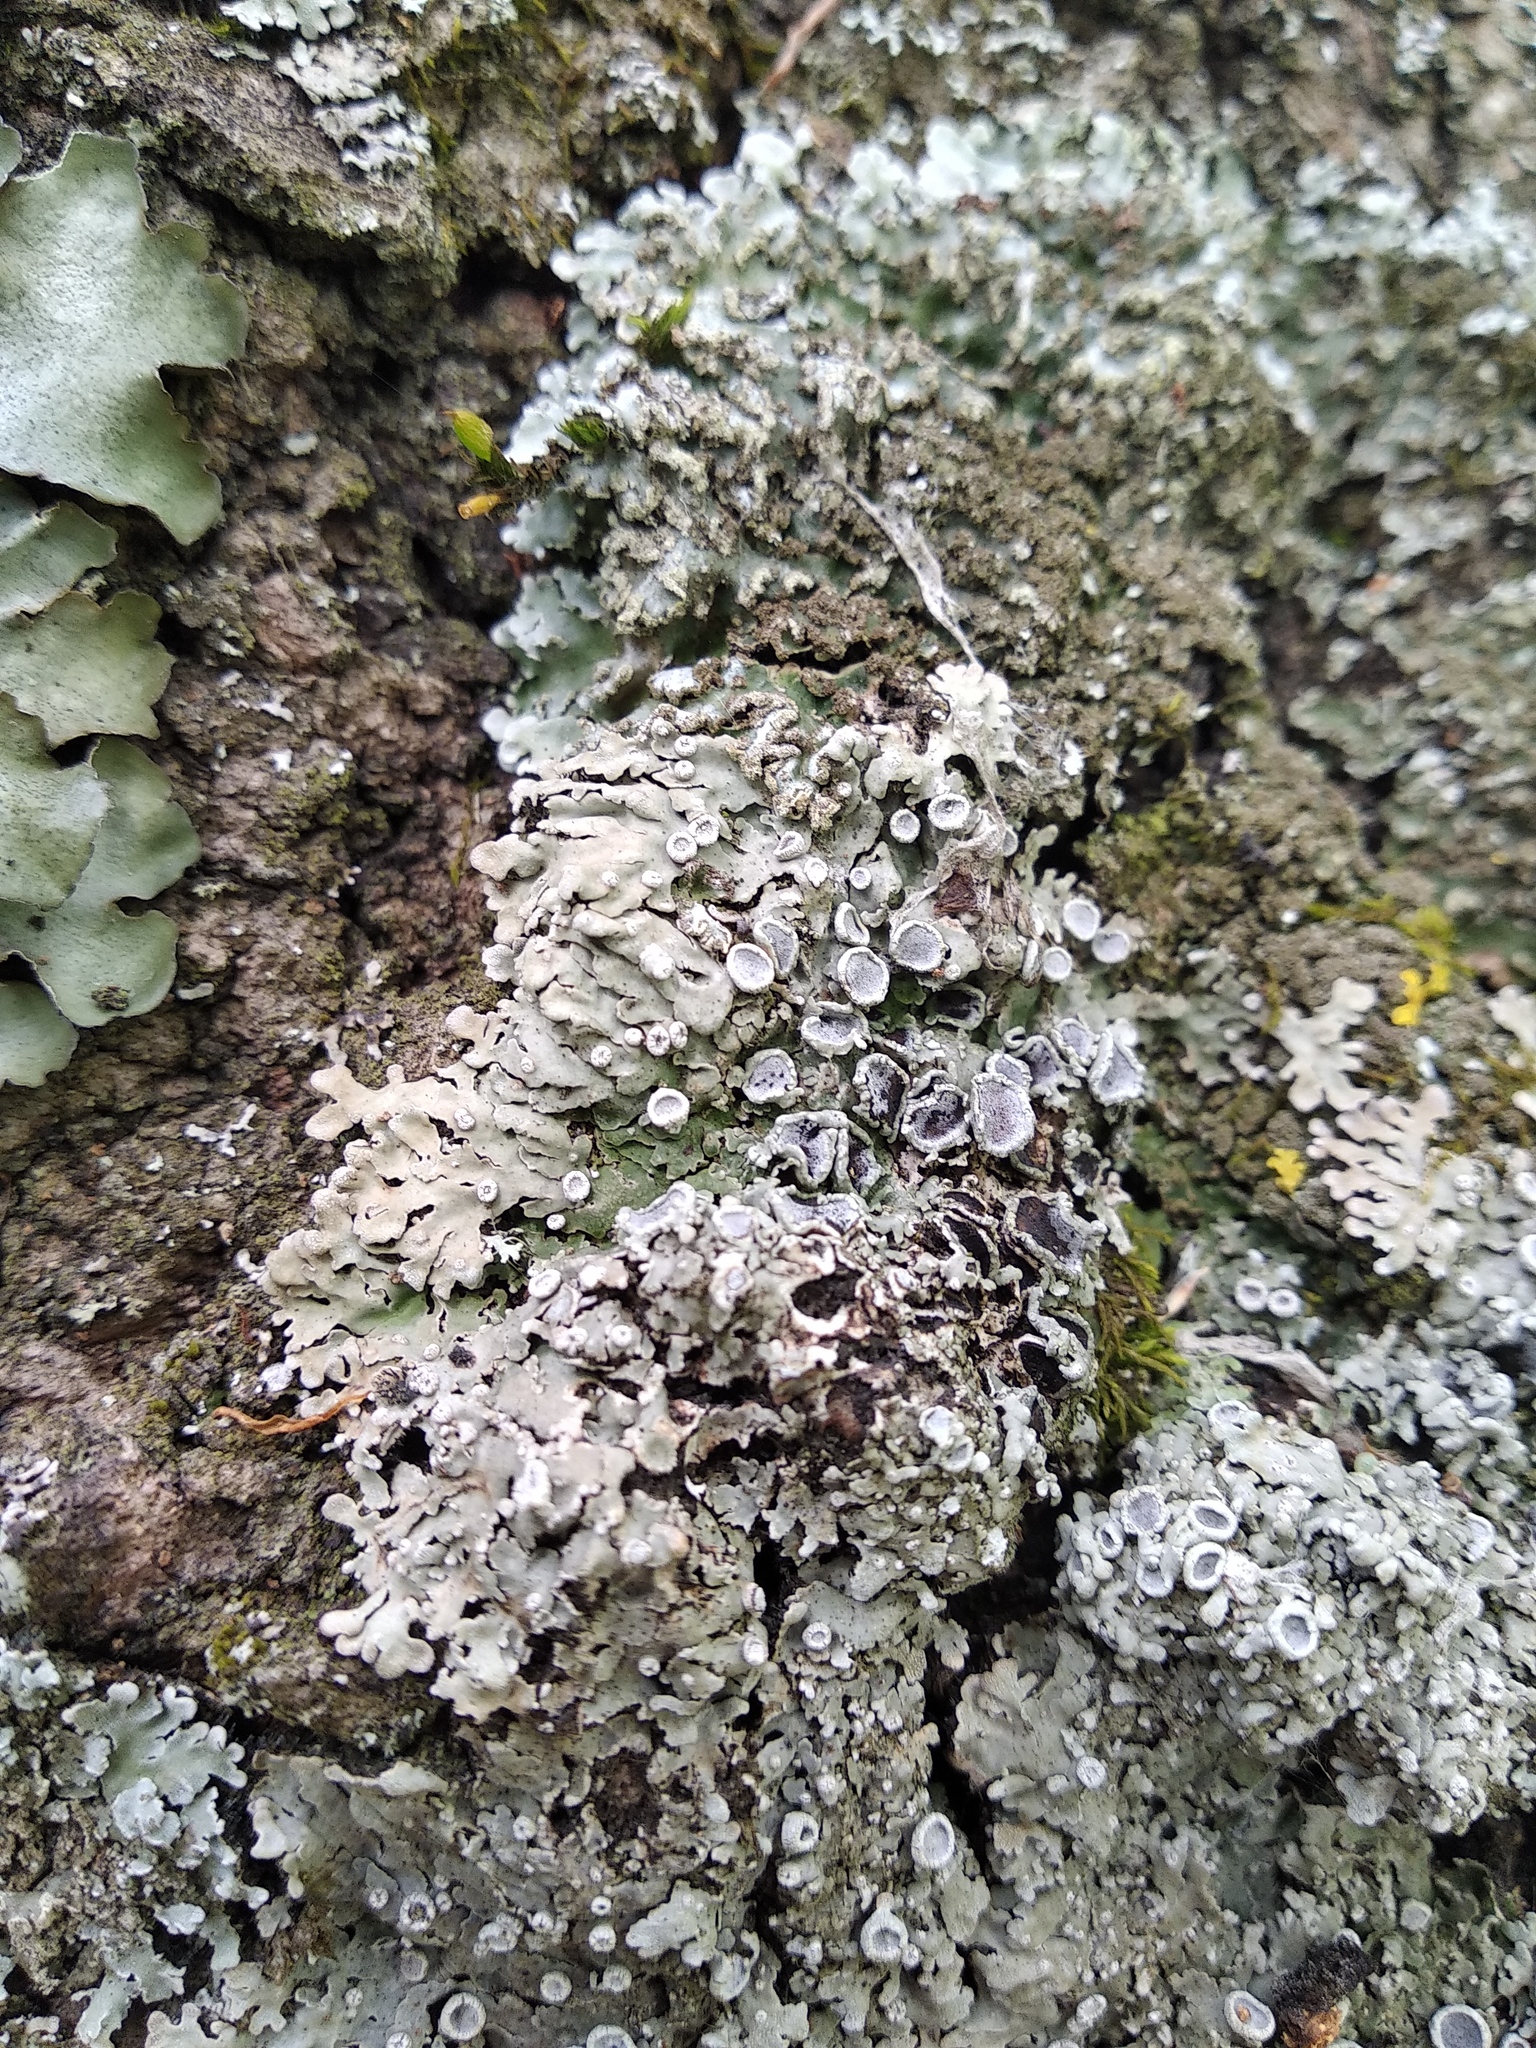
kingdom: Fungi
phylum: Ascomycota
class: Lecanoromycetes
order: Caliciales
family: Physciaceae
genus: Physconia
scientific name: Physconia distorta
